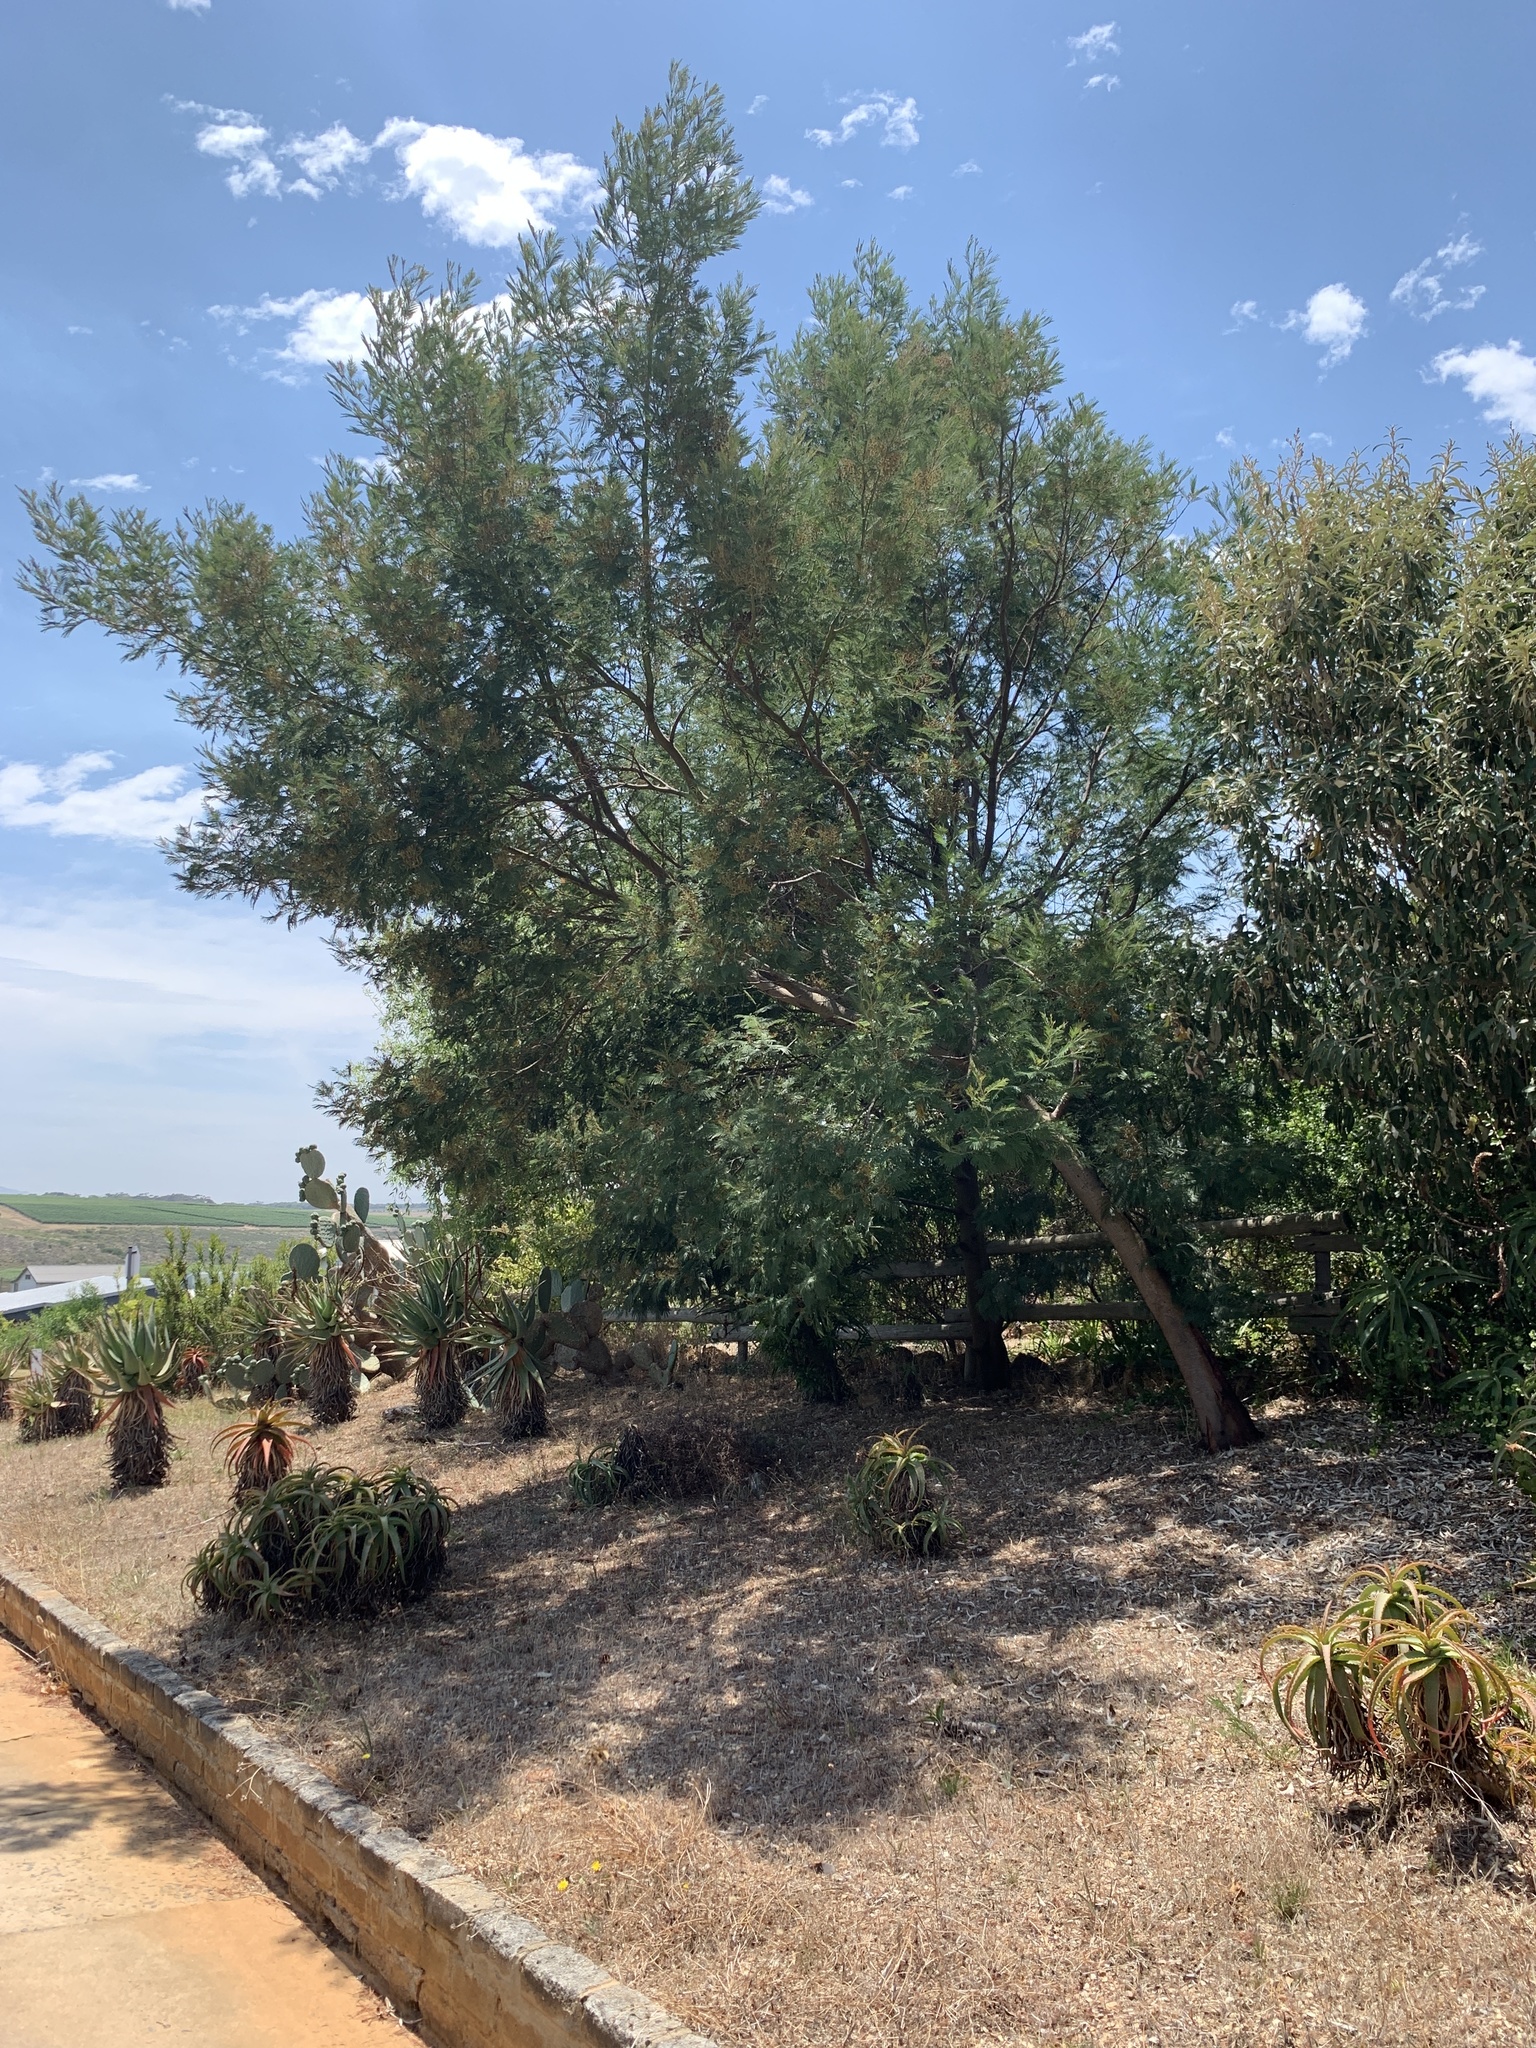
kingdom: Plantae
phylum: Tracheophyta
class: Magnoliopsida
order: Fabales
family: Fabaceae
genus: Acacia
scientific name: Acacia mearnsii
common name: Black wattle
